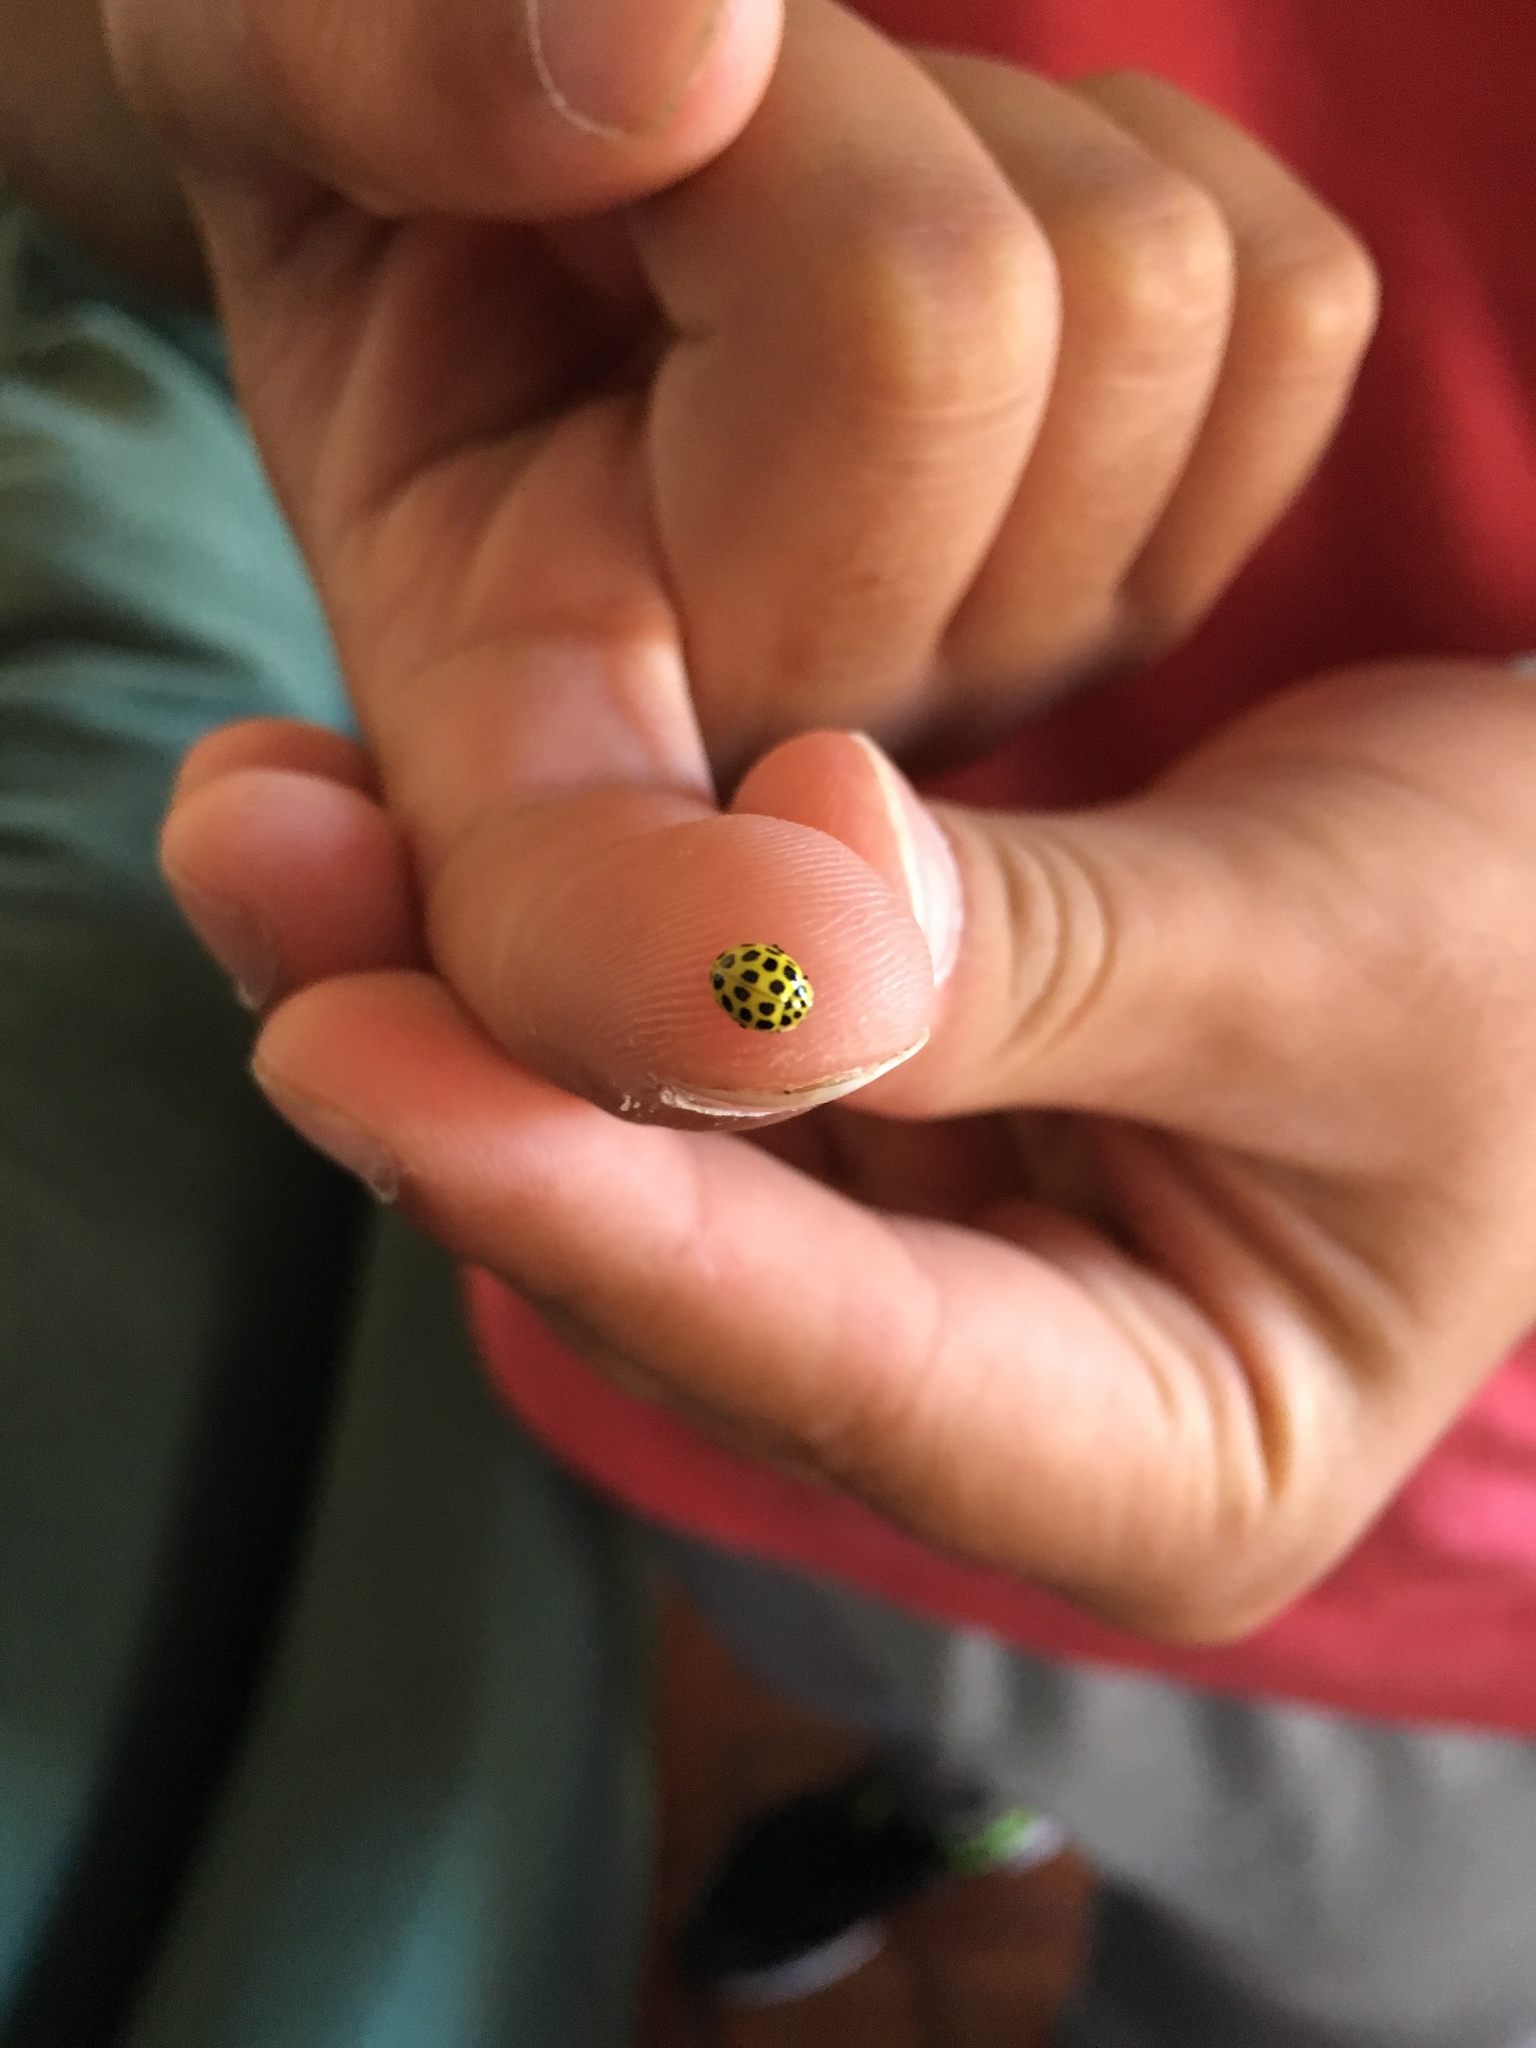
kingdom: Animalia
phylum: Arthropoda
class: Insecta
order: Coleoptera
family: Coccinellidae
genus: Psyllobora
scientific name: Psyllobora vigintiduopunctata
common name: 22-spot ladybird
